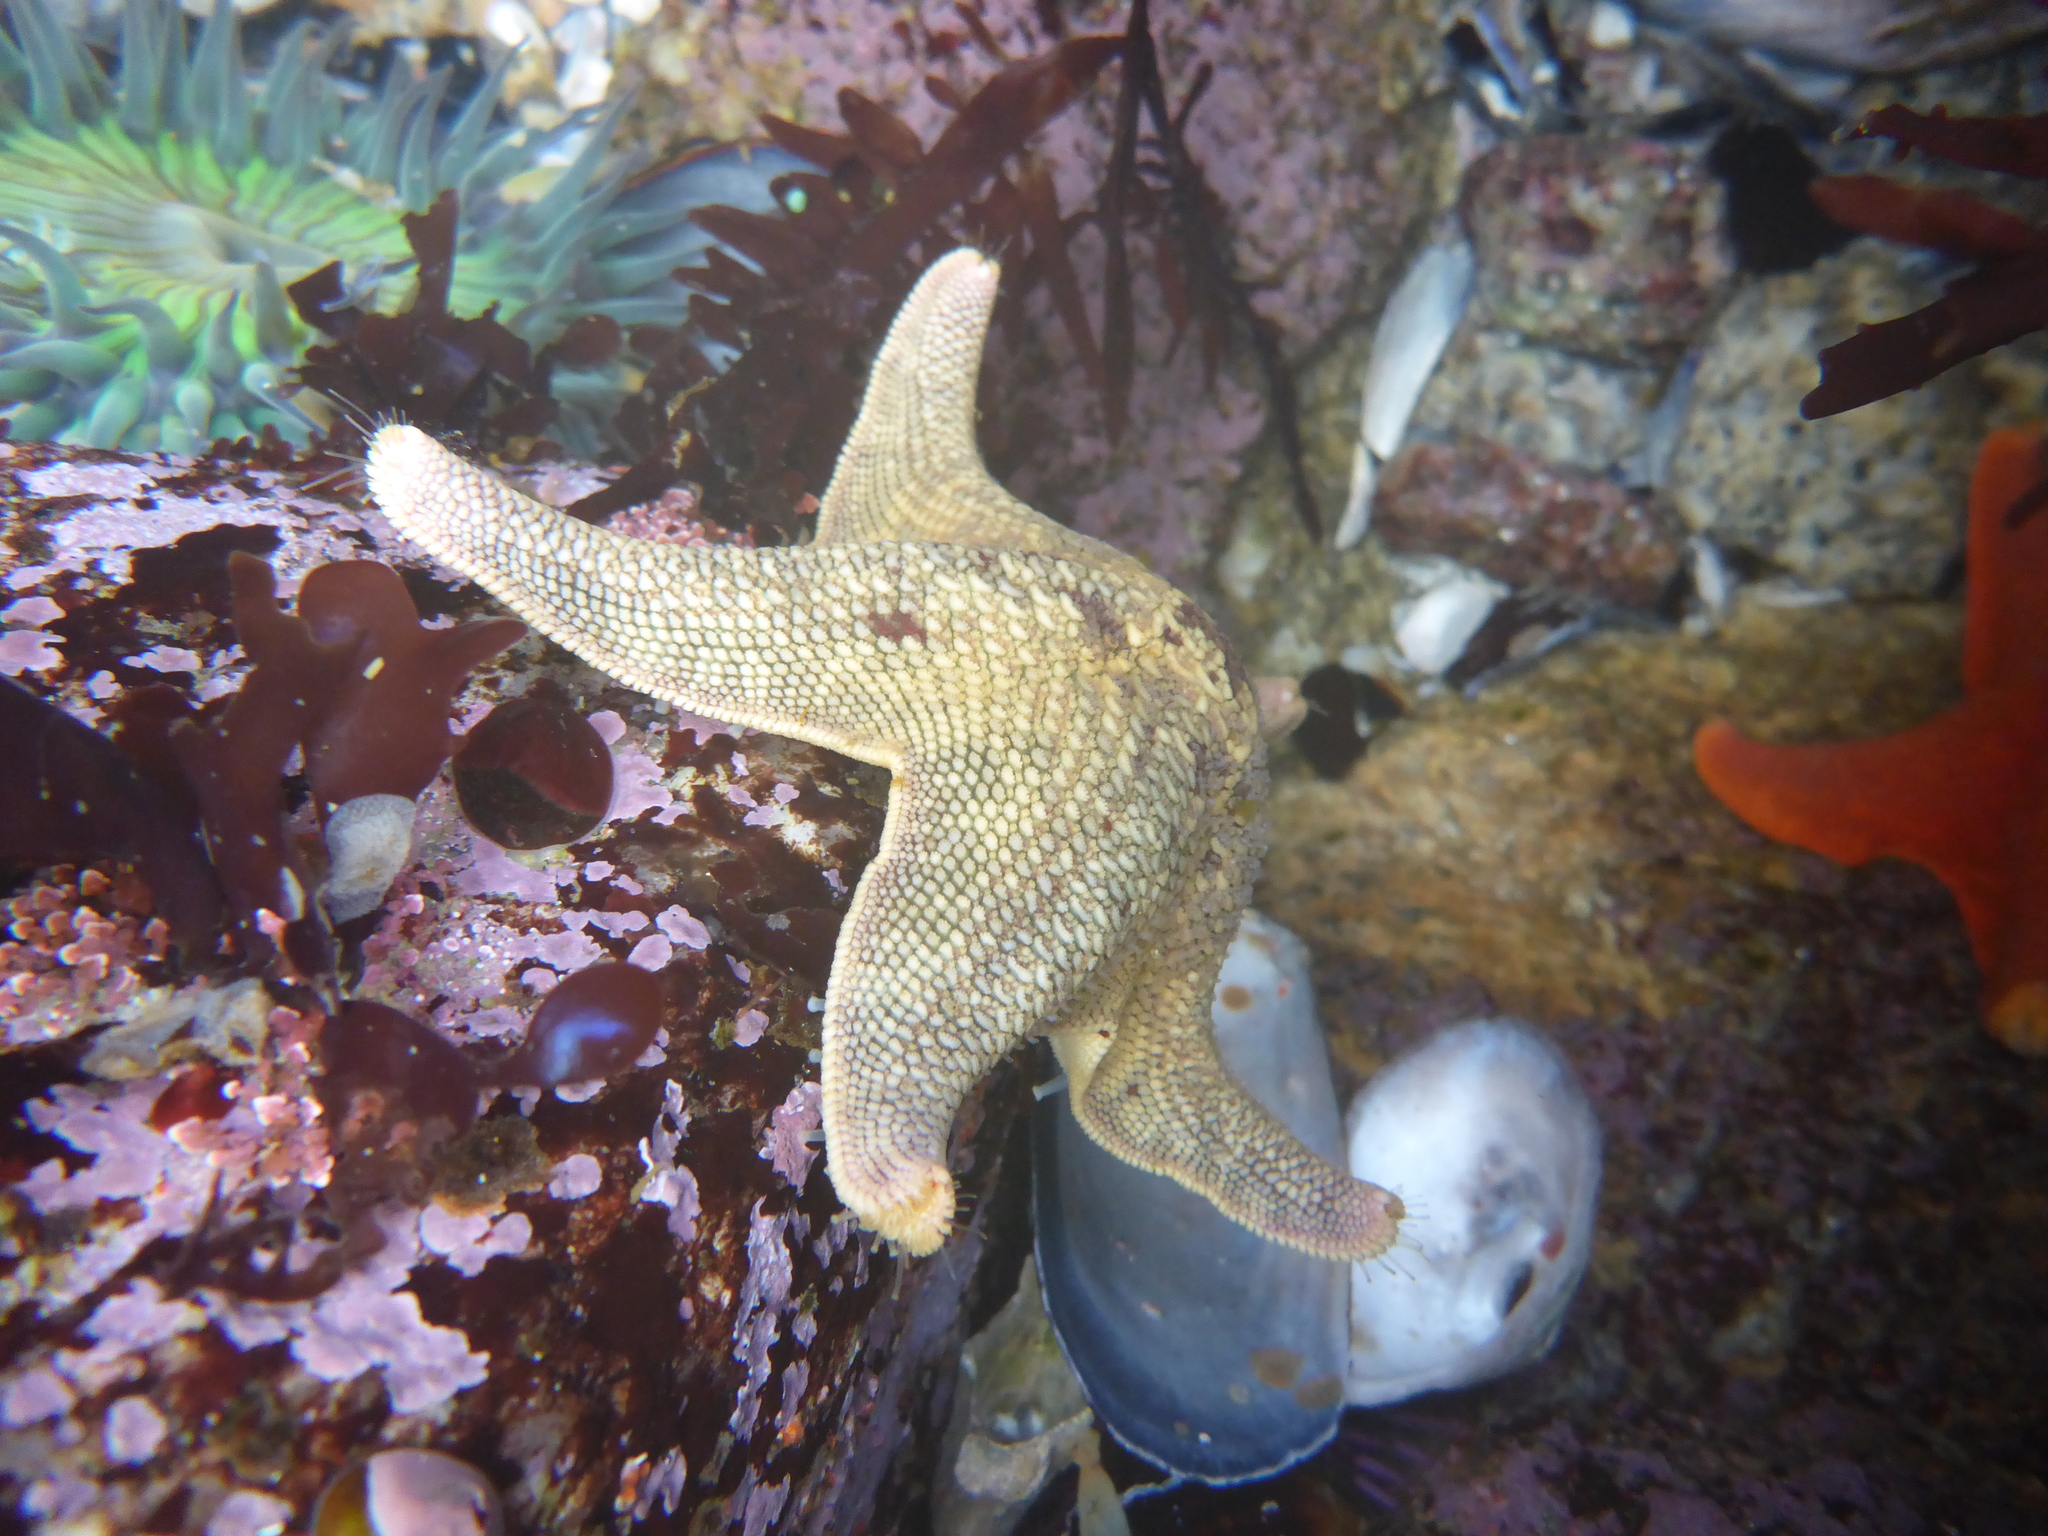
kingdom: Animalia
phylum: Echinodermata
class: Asteroidea
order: Valvatida
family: Asterinidae
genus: Patiria
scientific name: Patiria miniata
